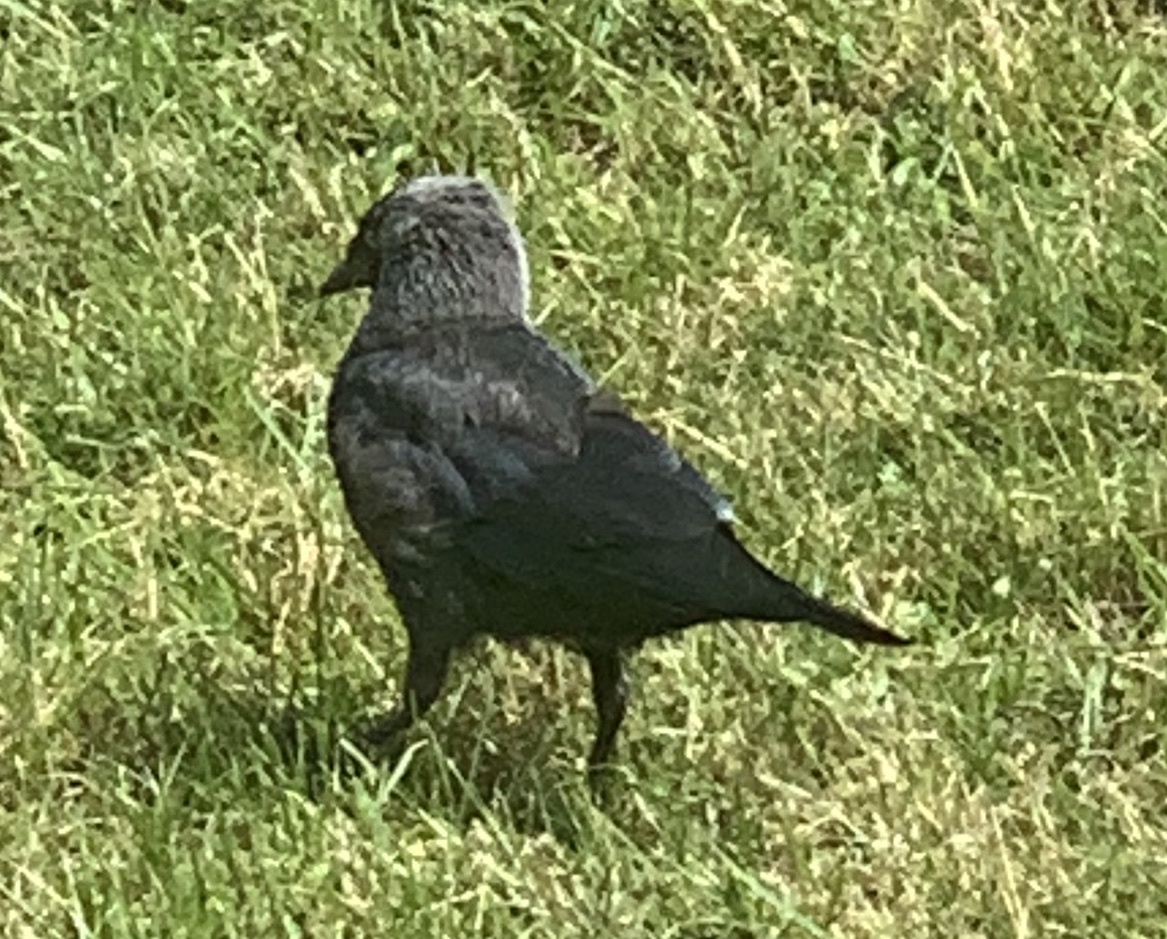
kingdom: Animalia
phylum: Chordata
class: Aves
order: Passeriformes
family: Corvidae
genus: Coloeus
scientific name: Coloeus monedula
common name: Western jackdaw
